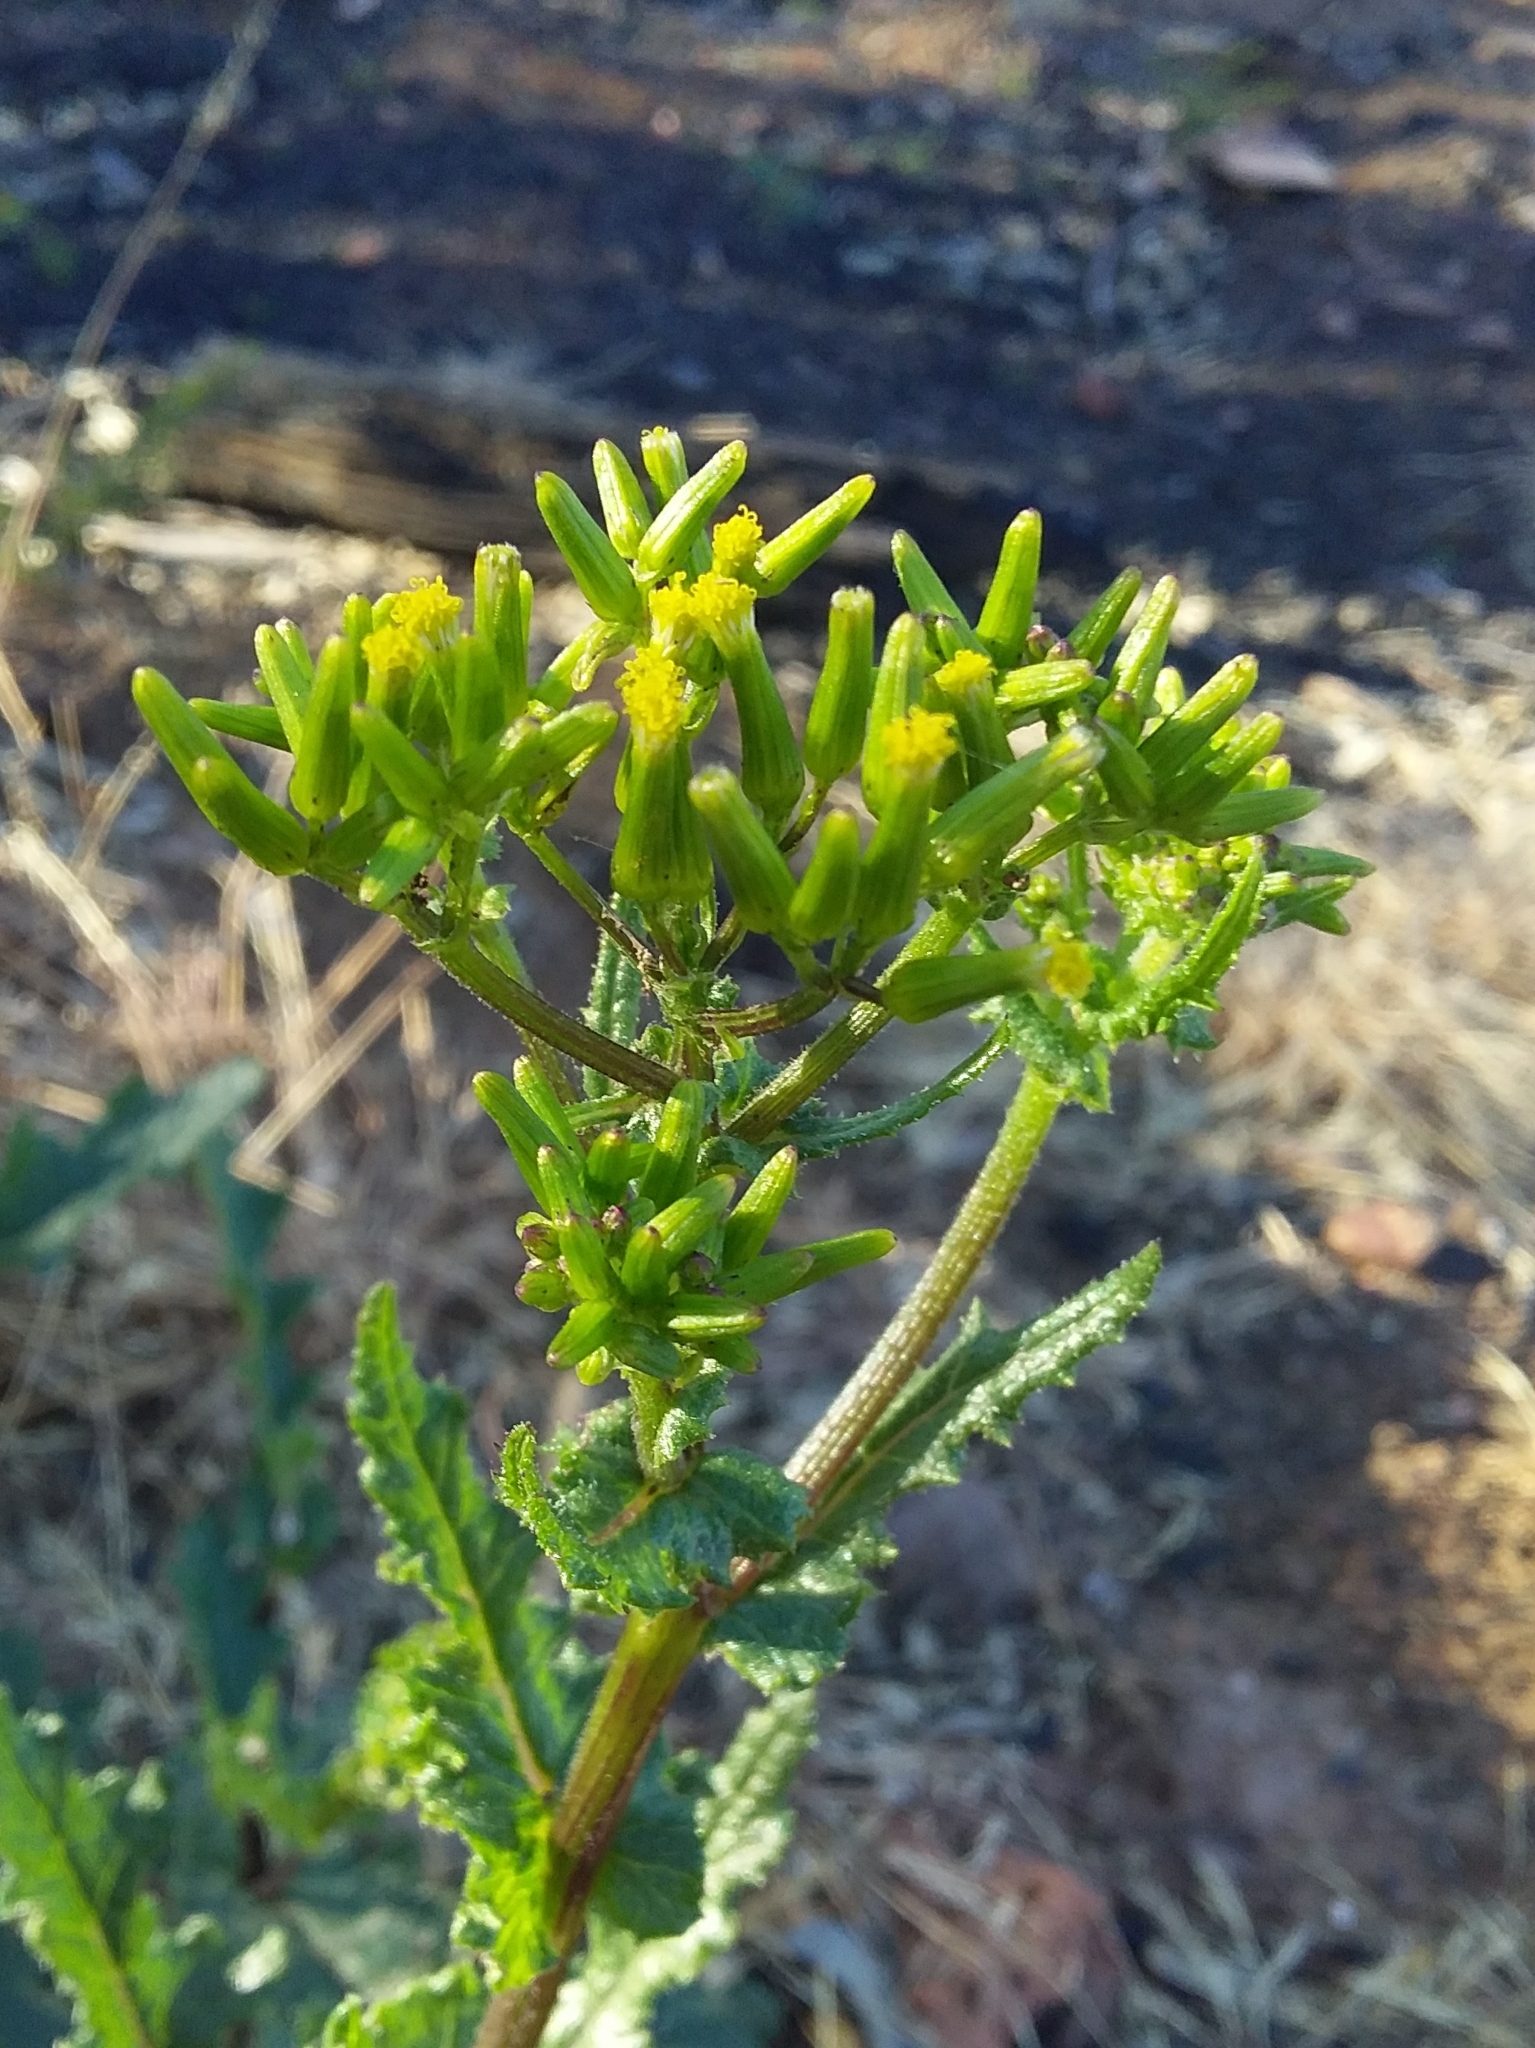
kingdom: Plantae
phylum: Tracheophyta
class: Magnoliopsida
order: Asterales
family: Asteraceae
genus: Senecio
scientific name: Senecio picridioides
